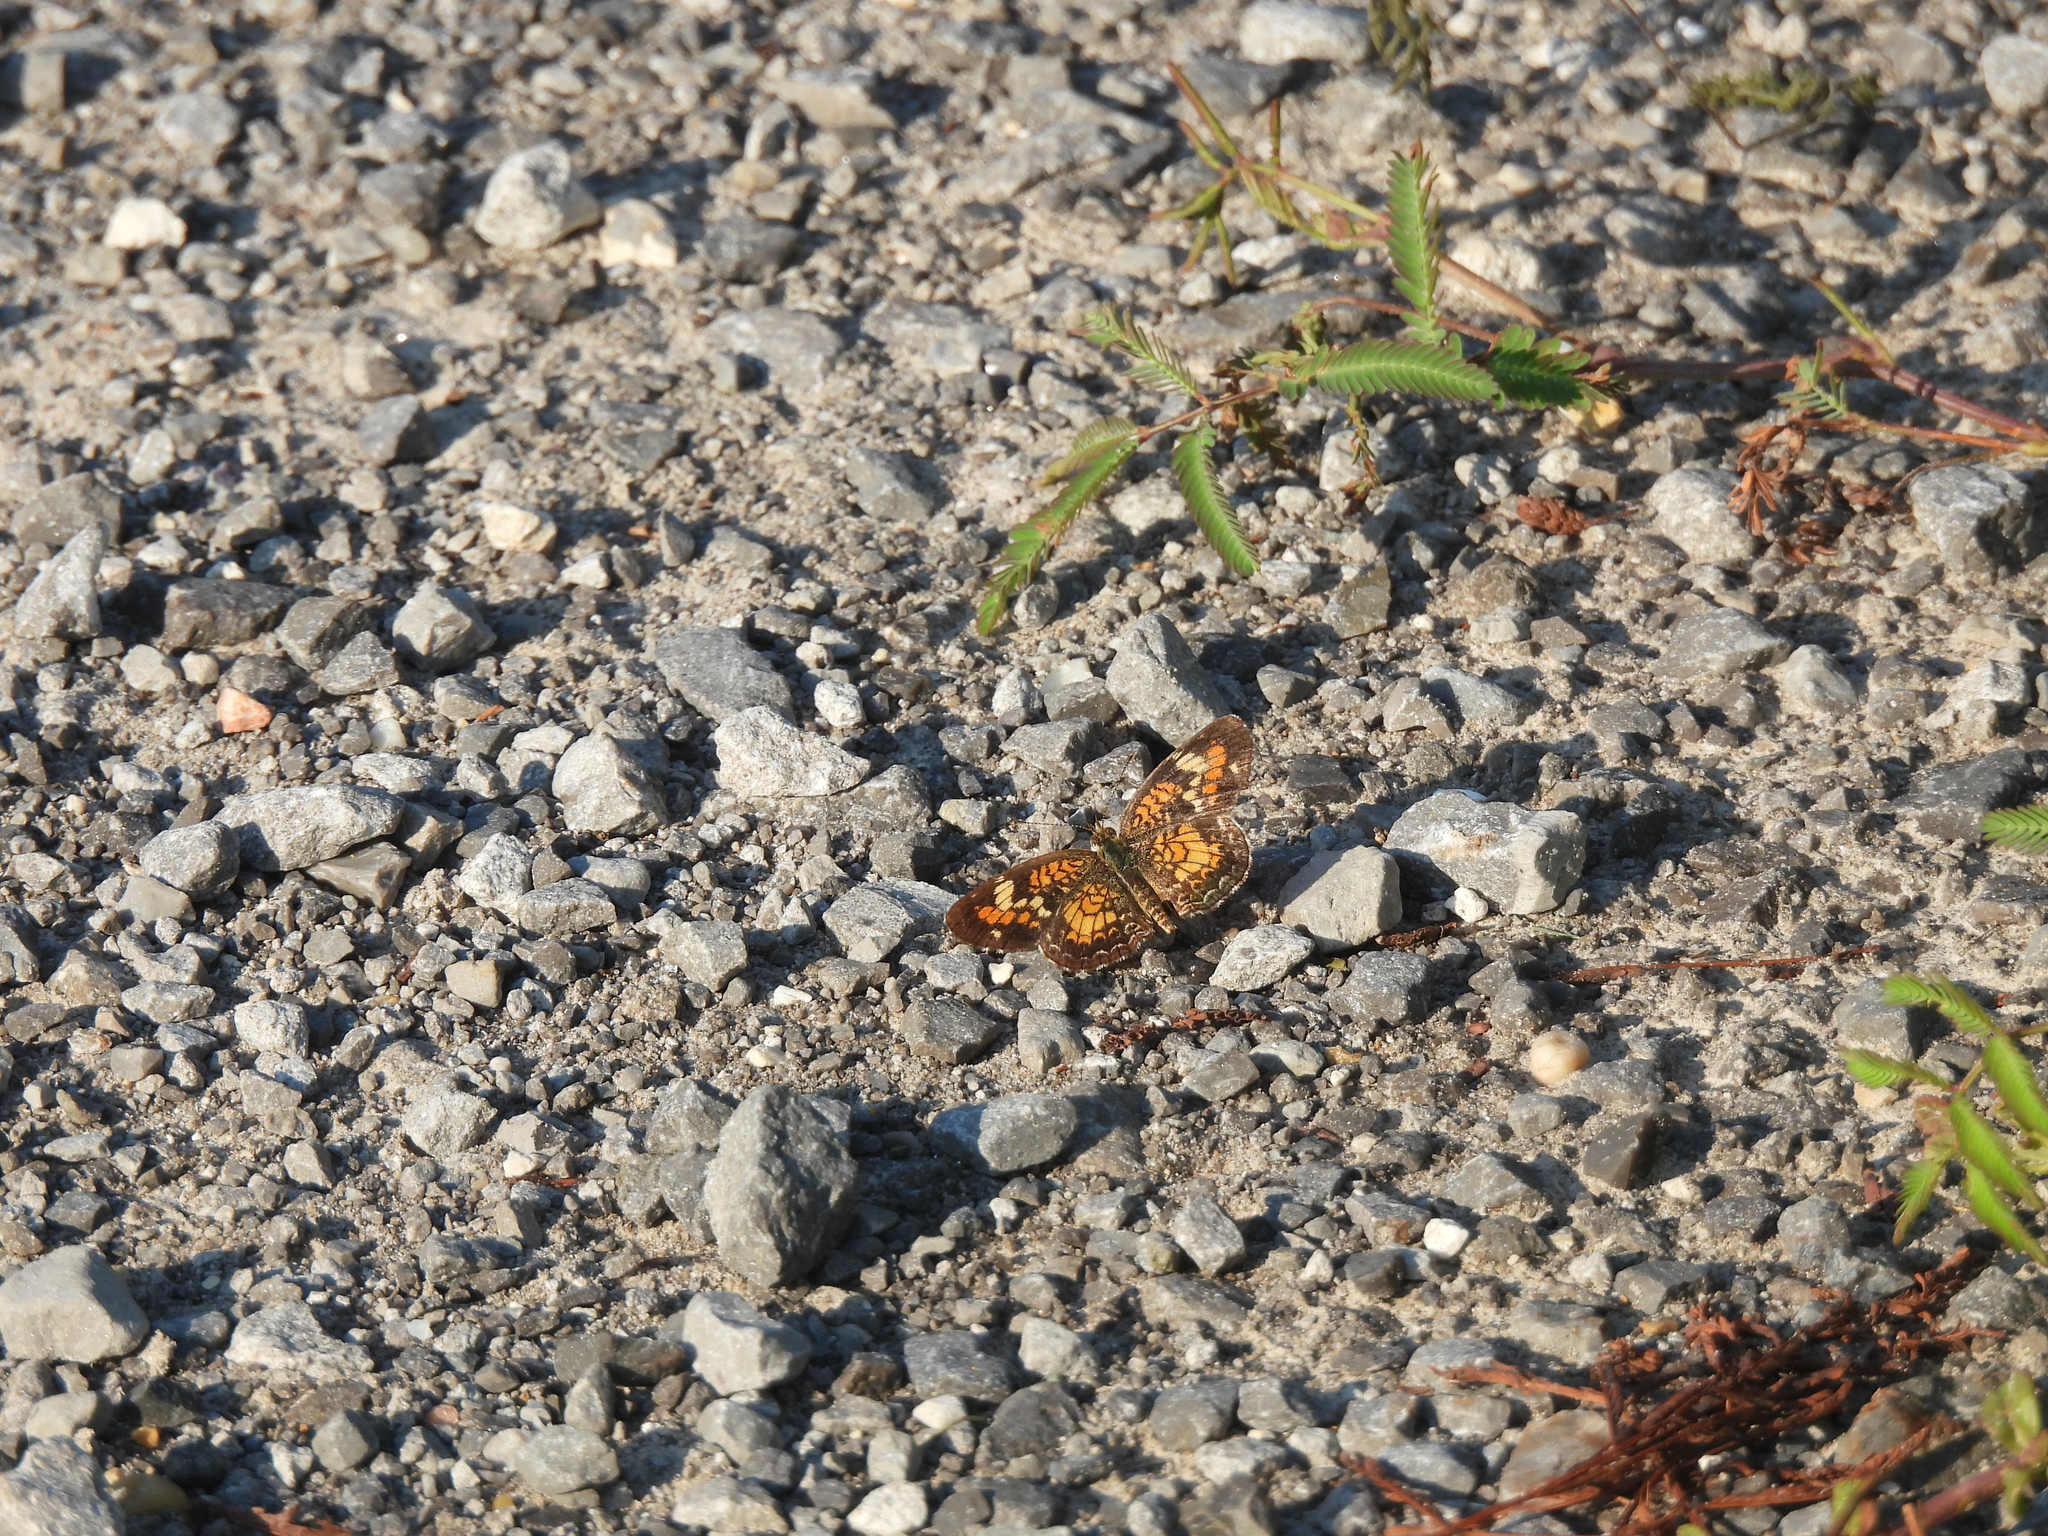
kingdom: Animalia
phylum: Arthropoda
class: Insecta
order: Lepidoptera
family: Nymphalidae
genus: Phyciodes
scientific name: Phyciodes phaon
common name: Phaon crescent
